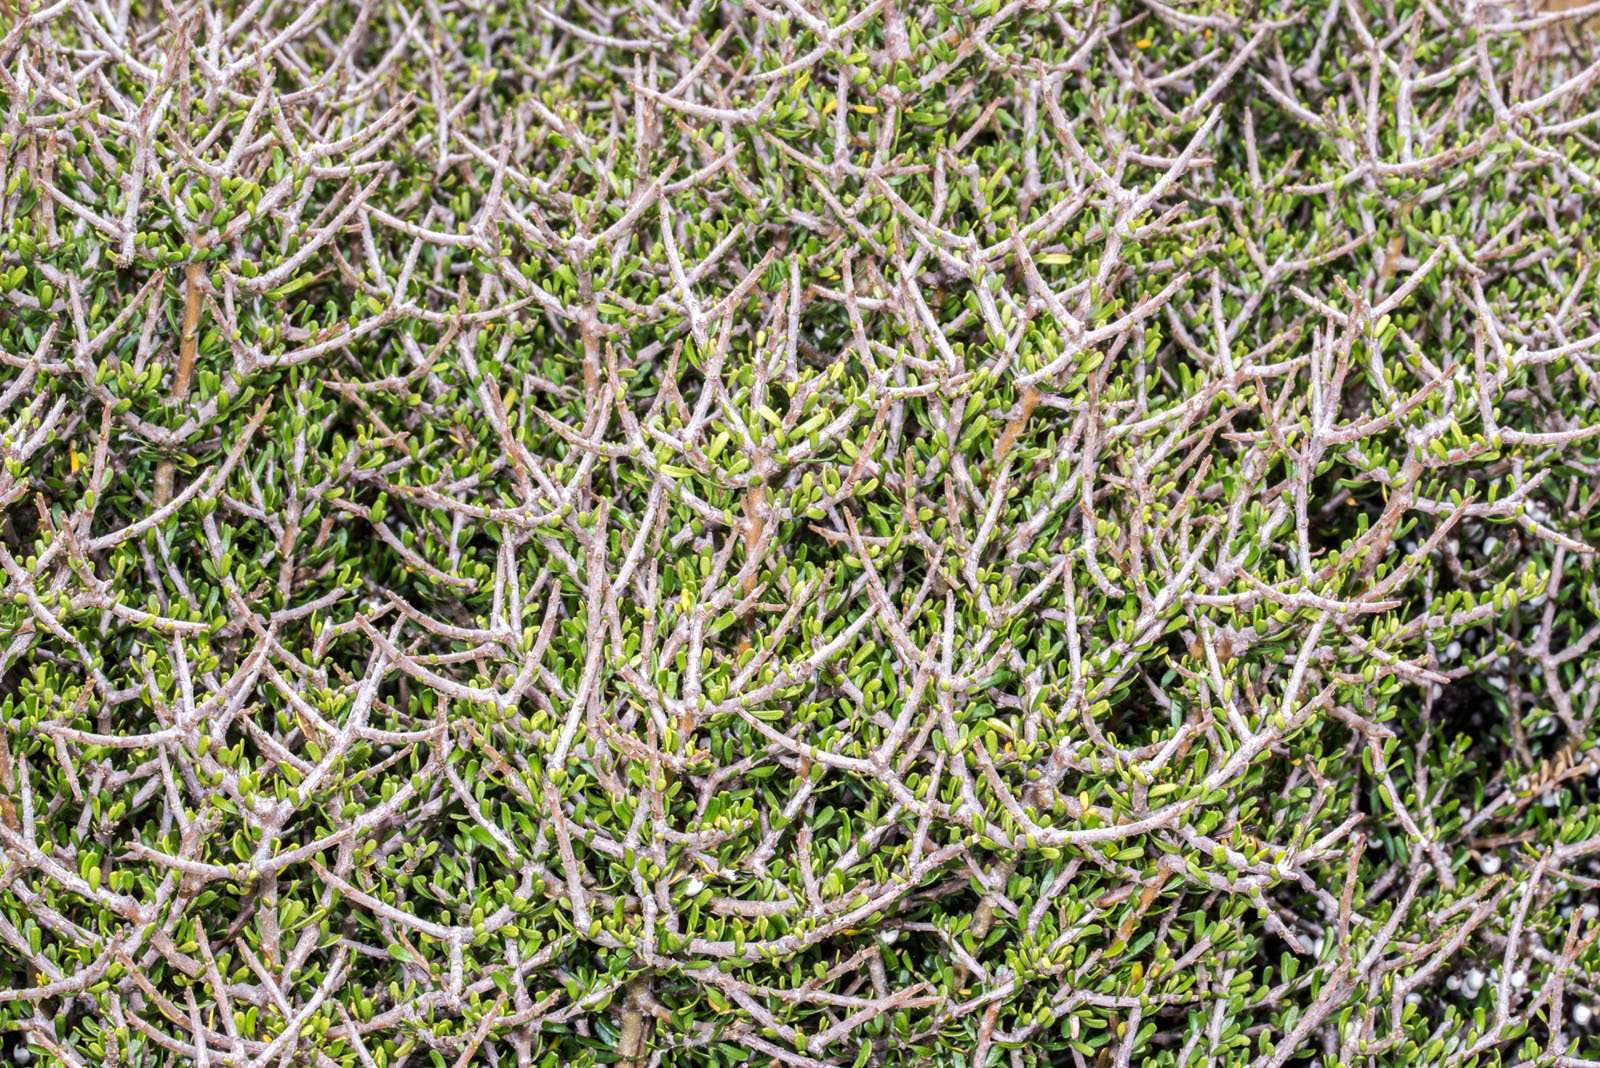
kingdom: Plantae
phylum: Tracheophyta
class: Magnoliopsida
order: Malpighiales
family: Violaceae
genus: Melicytus
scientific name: Melicytus alpinus
